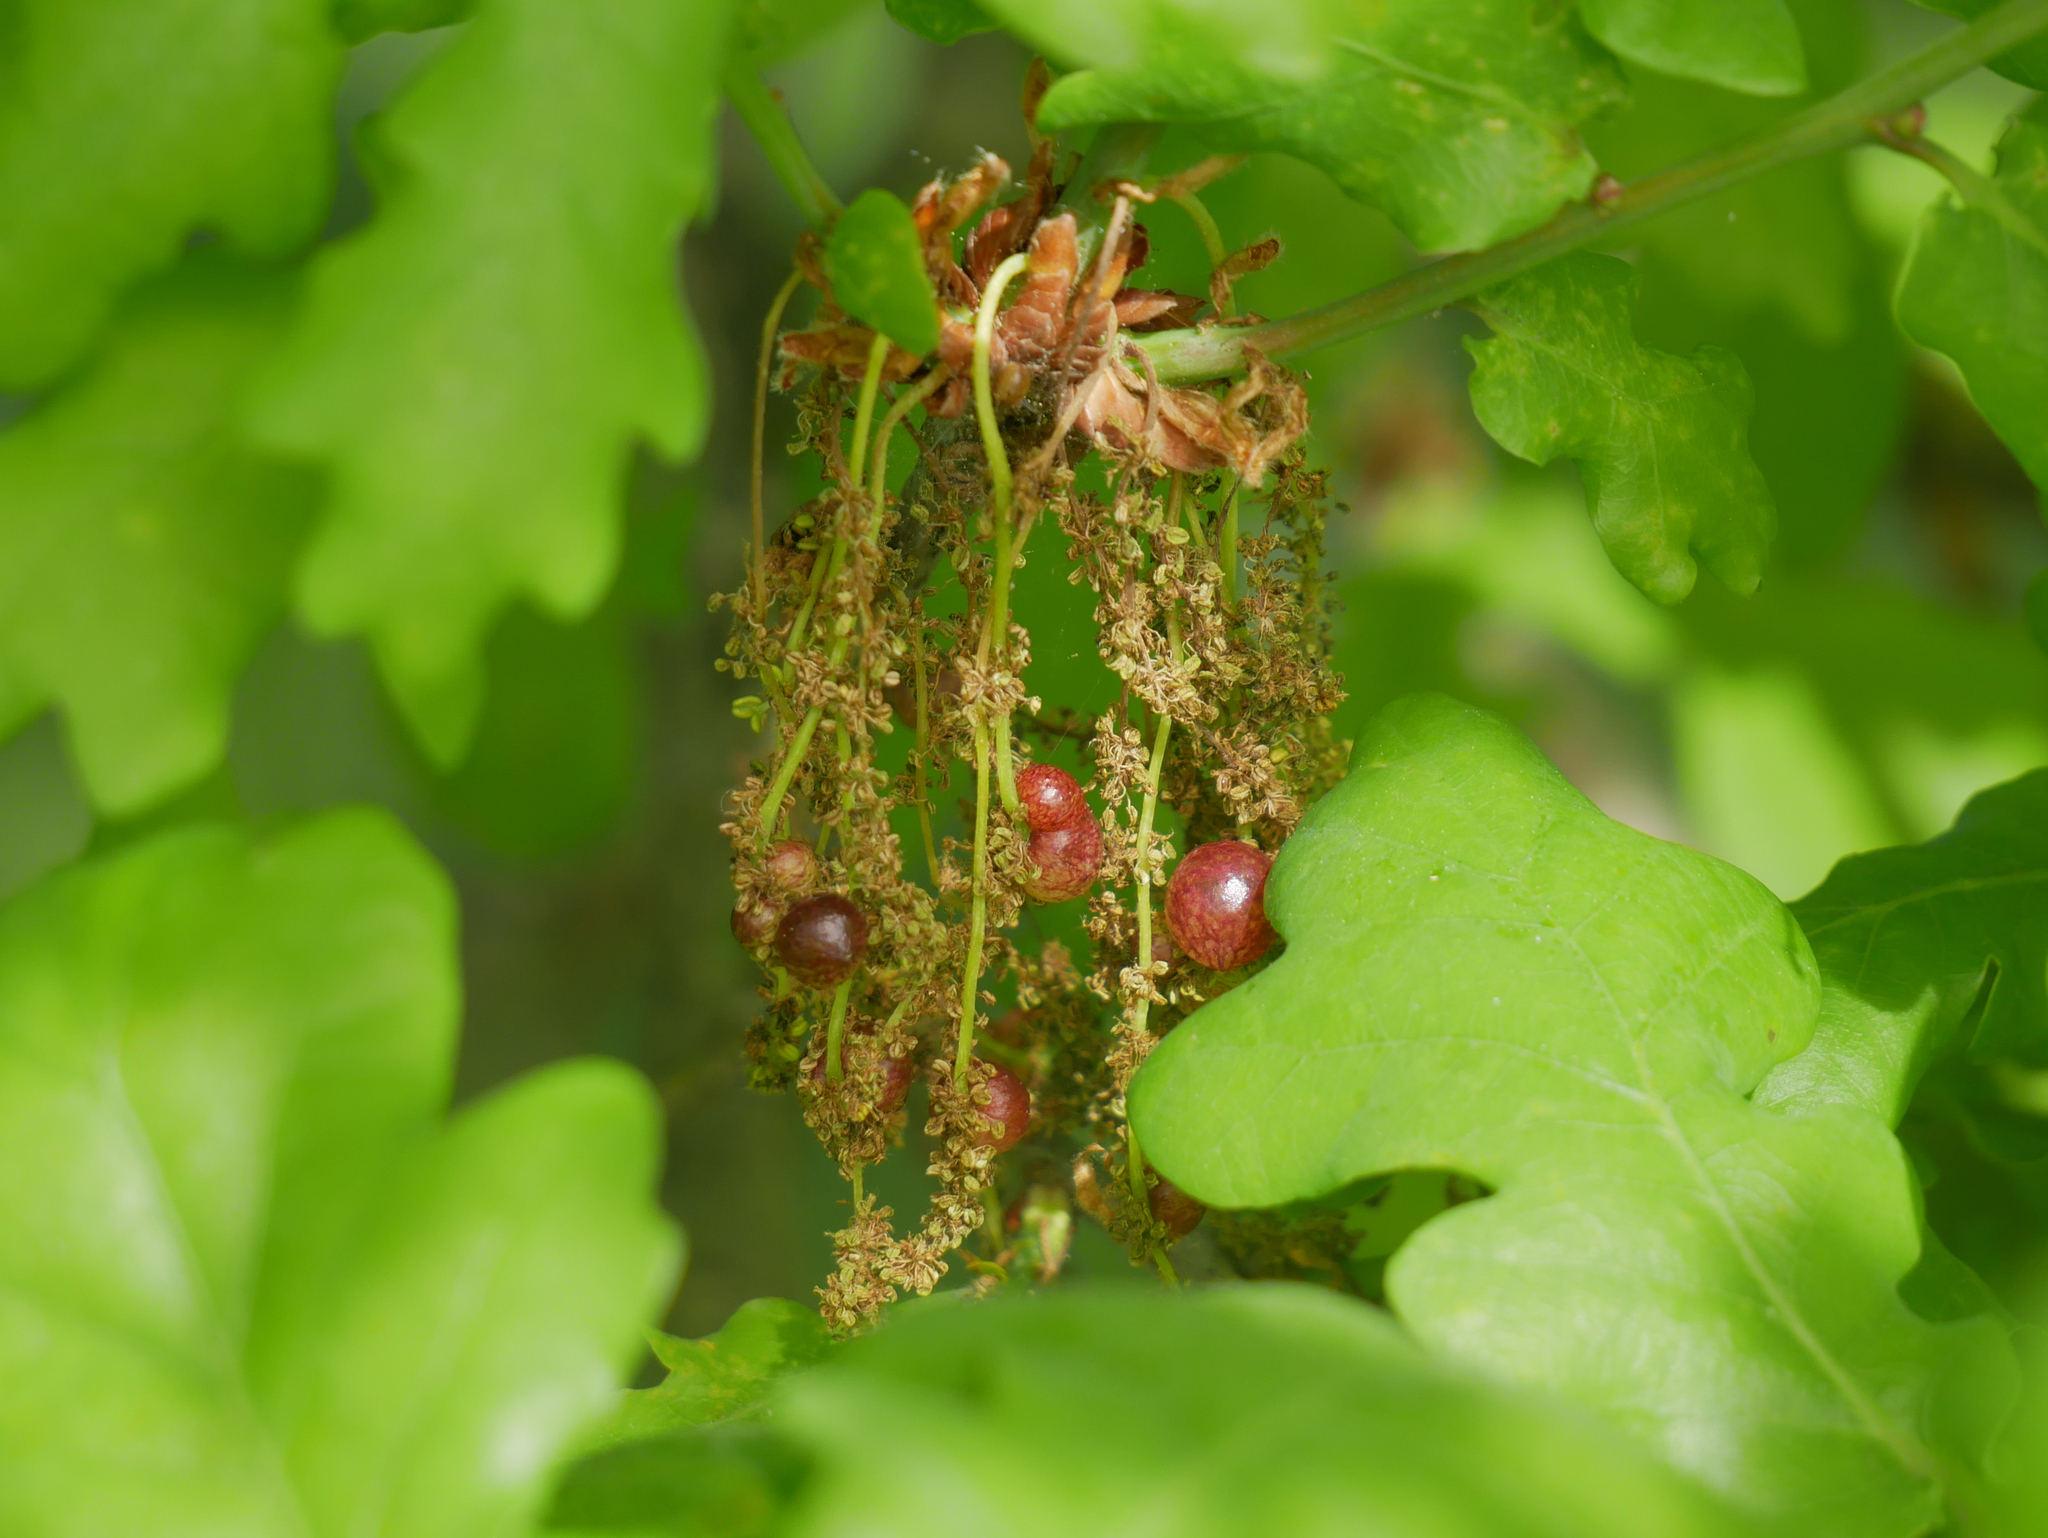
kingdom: Animalia
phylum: Arthropoda
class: Insecta
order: Hymenoptera
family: Cynipidae
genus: Neuroterus
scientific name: Neuroterus quercusbaccarum
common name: Common spangle gall
